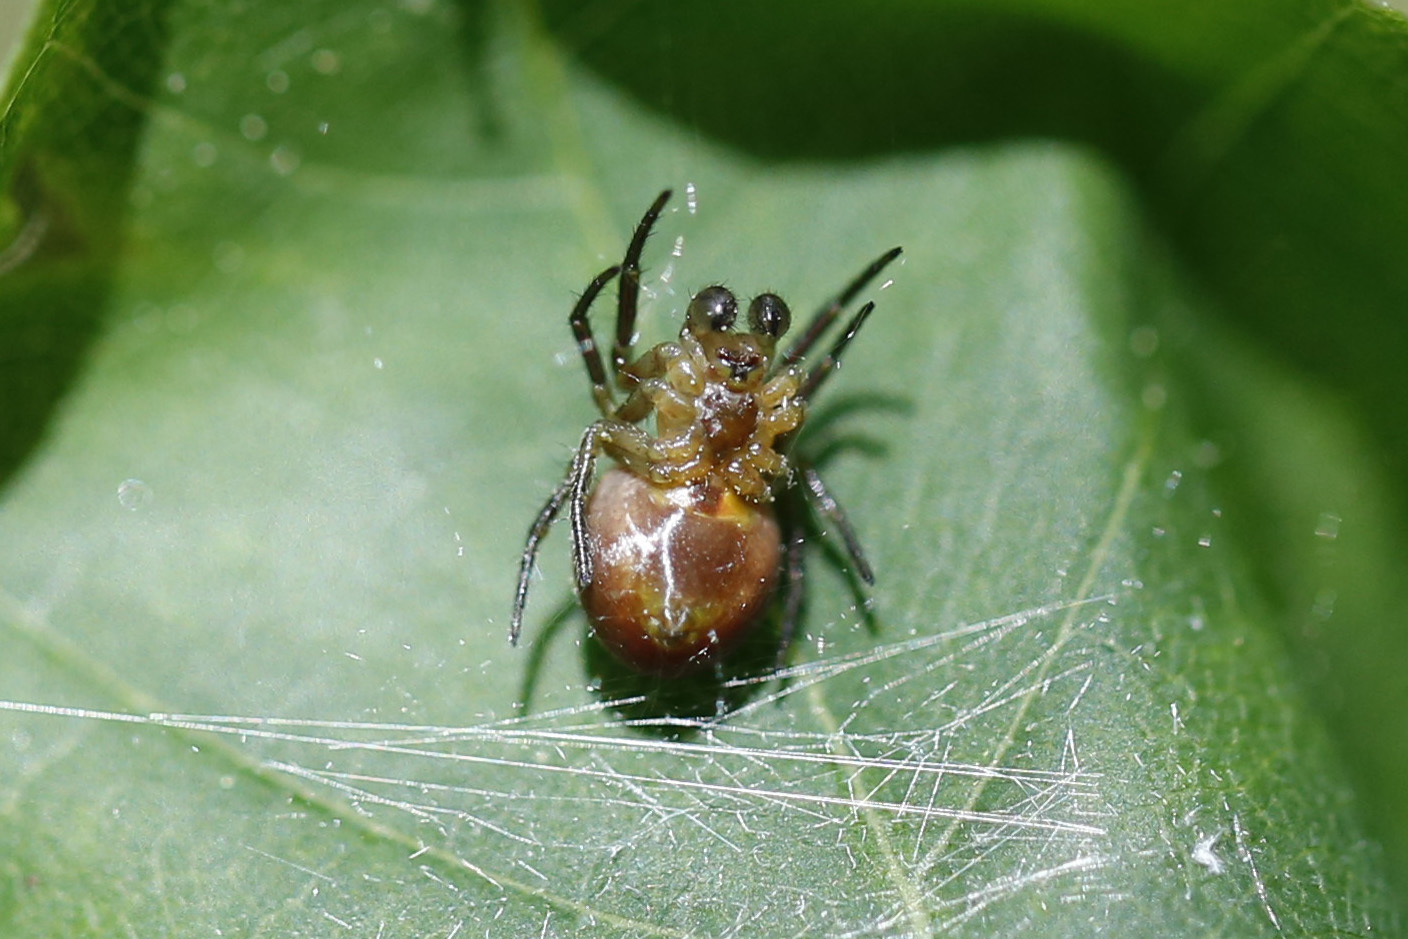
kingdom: Animalia
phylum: Arthropoda
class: Arachnida
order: Araneae
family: Araneidae
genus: Araniella
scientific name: Araniella displicata
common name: Sixspotted orb weaver
